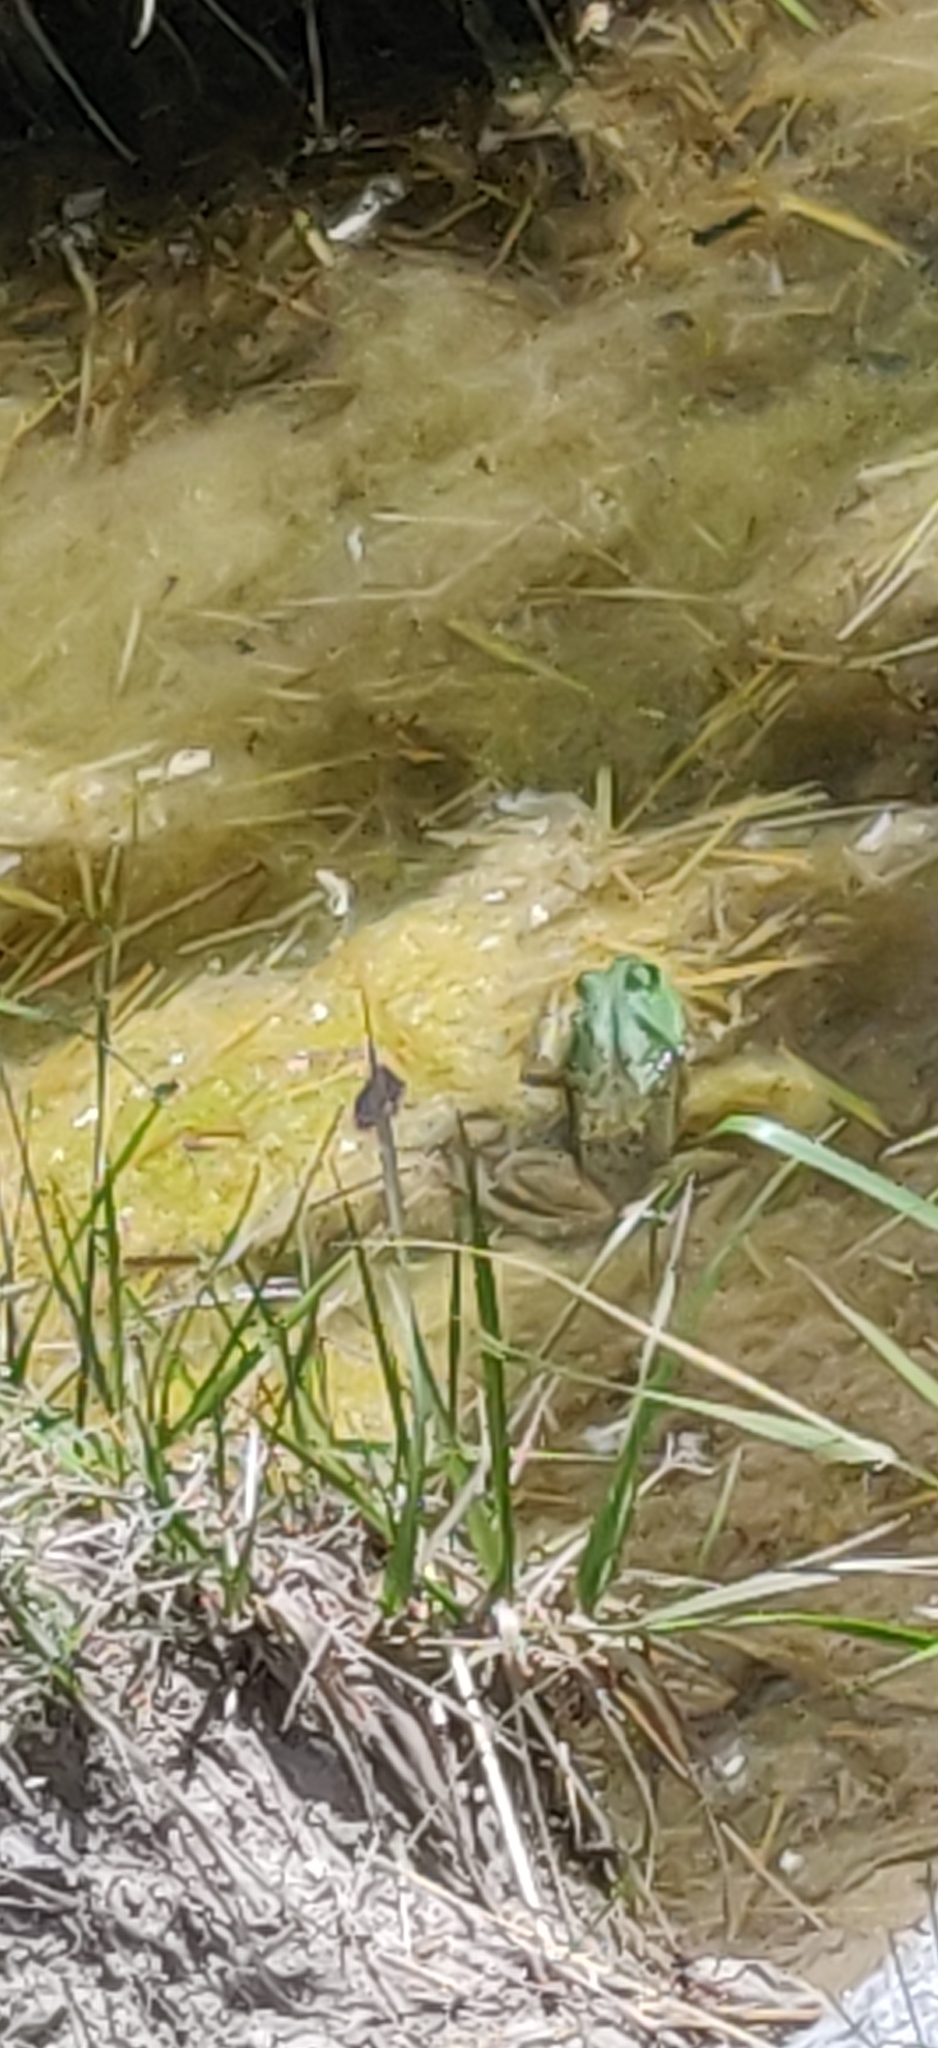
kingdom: Animalia
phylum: Chordata
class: Amphibia
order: Anura
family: Ranidae
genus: Lithobates
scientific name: Lithobates catesbeianus
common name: American bullfrog
